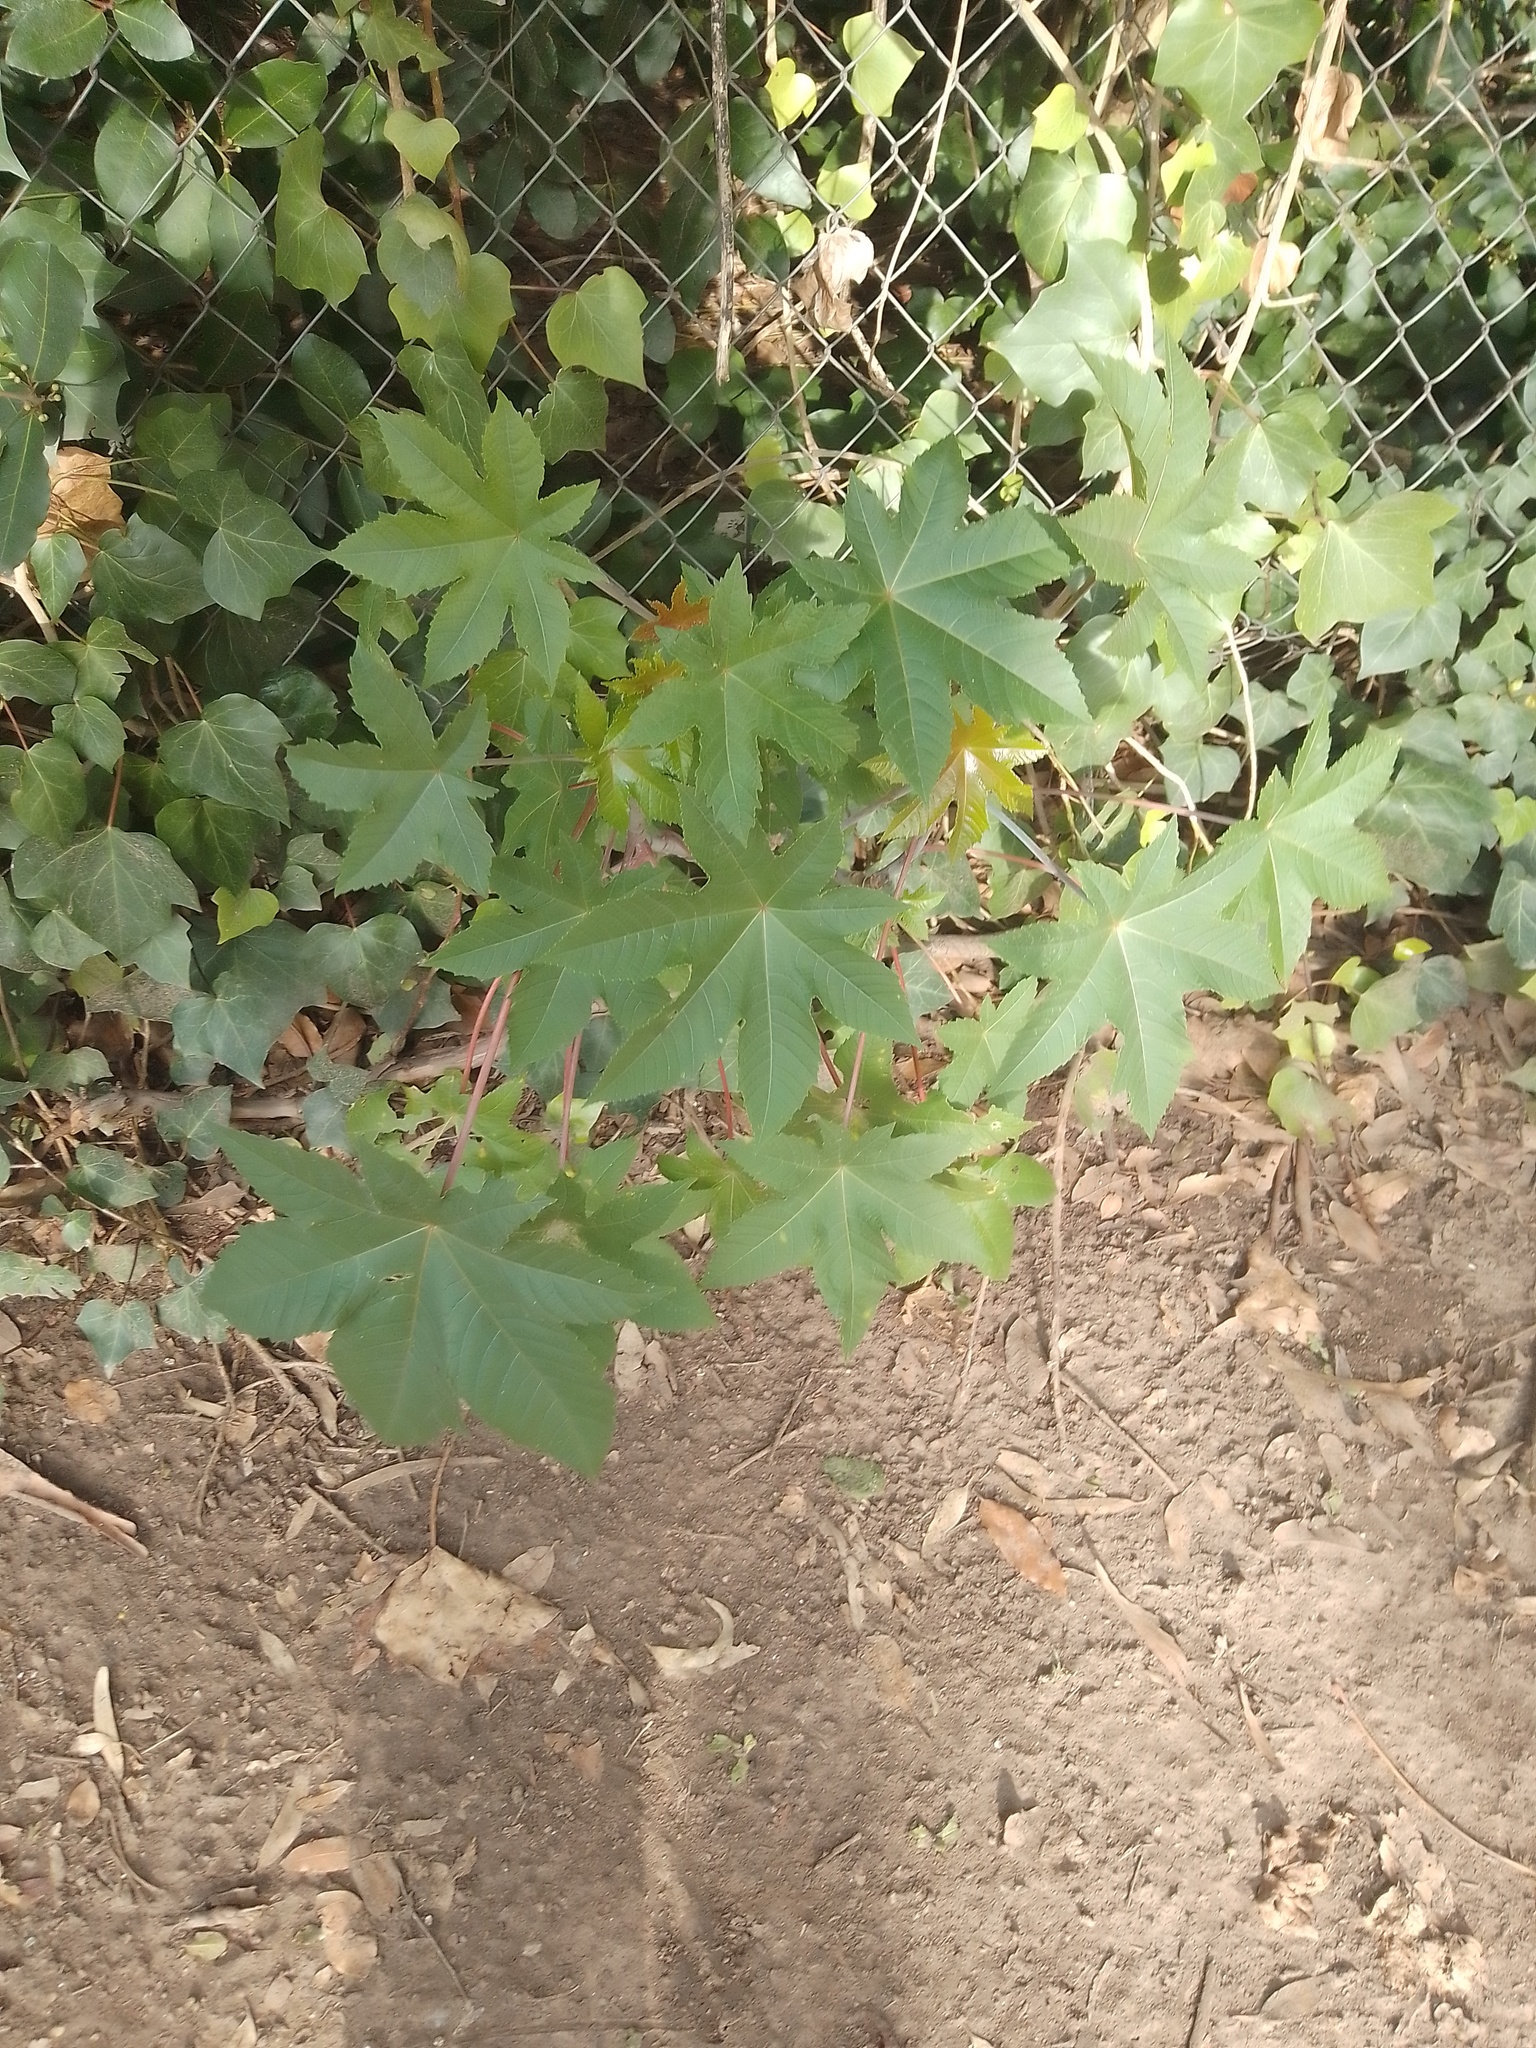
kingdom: Plantae
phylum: Tracheophyta
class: Magnoliopsida
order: Malpighiales
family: Euphorbiaceae
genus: Ricinus
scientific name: Ricinus communis
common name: Castor-oil-plant
